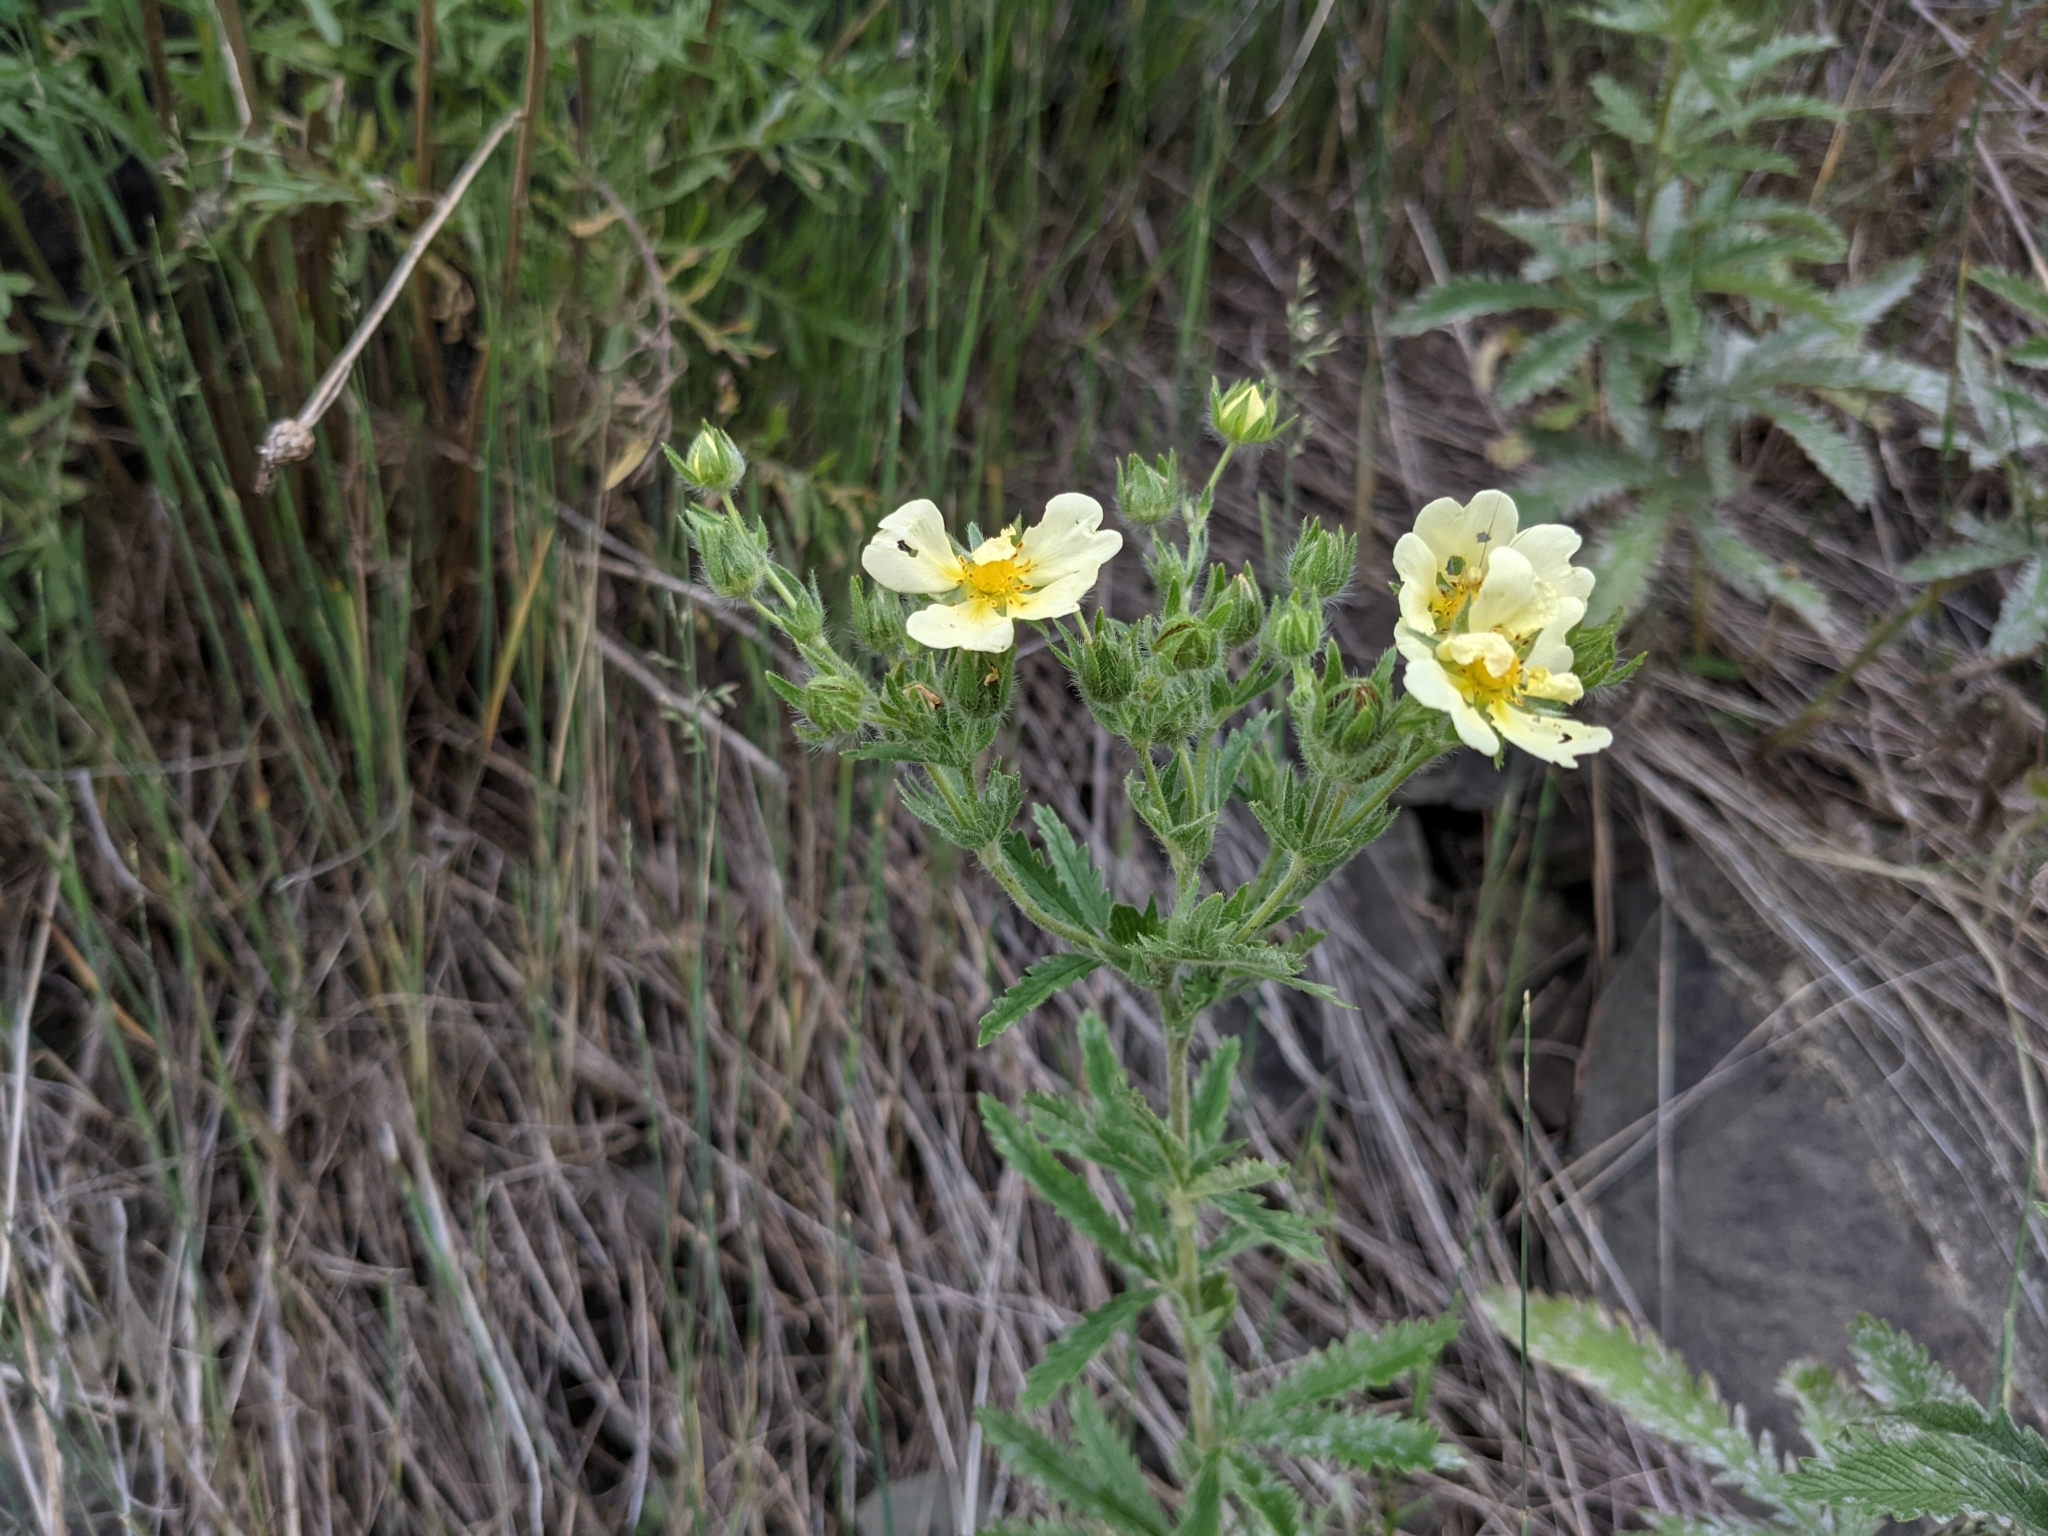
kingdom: Plantae
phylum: Tracheophyta
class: Magnoliopsida
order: Rosales
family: Rosaceae
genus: Potentilla
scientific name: Potentilla recta
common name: Sulphur cinquefoil
